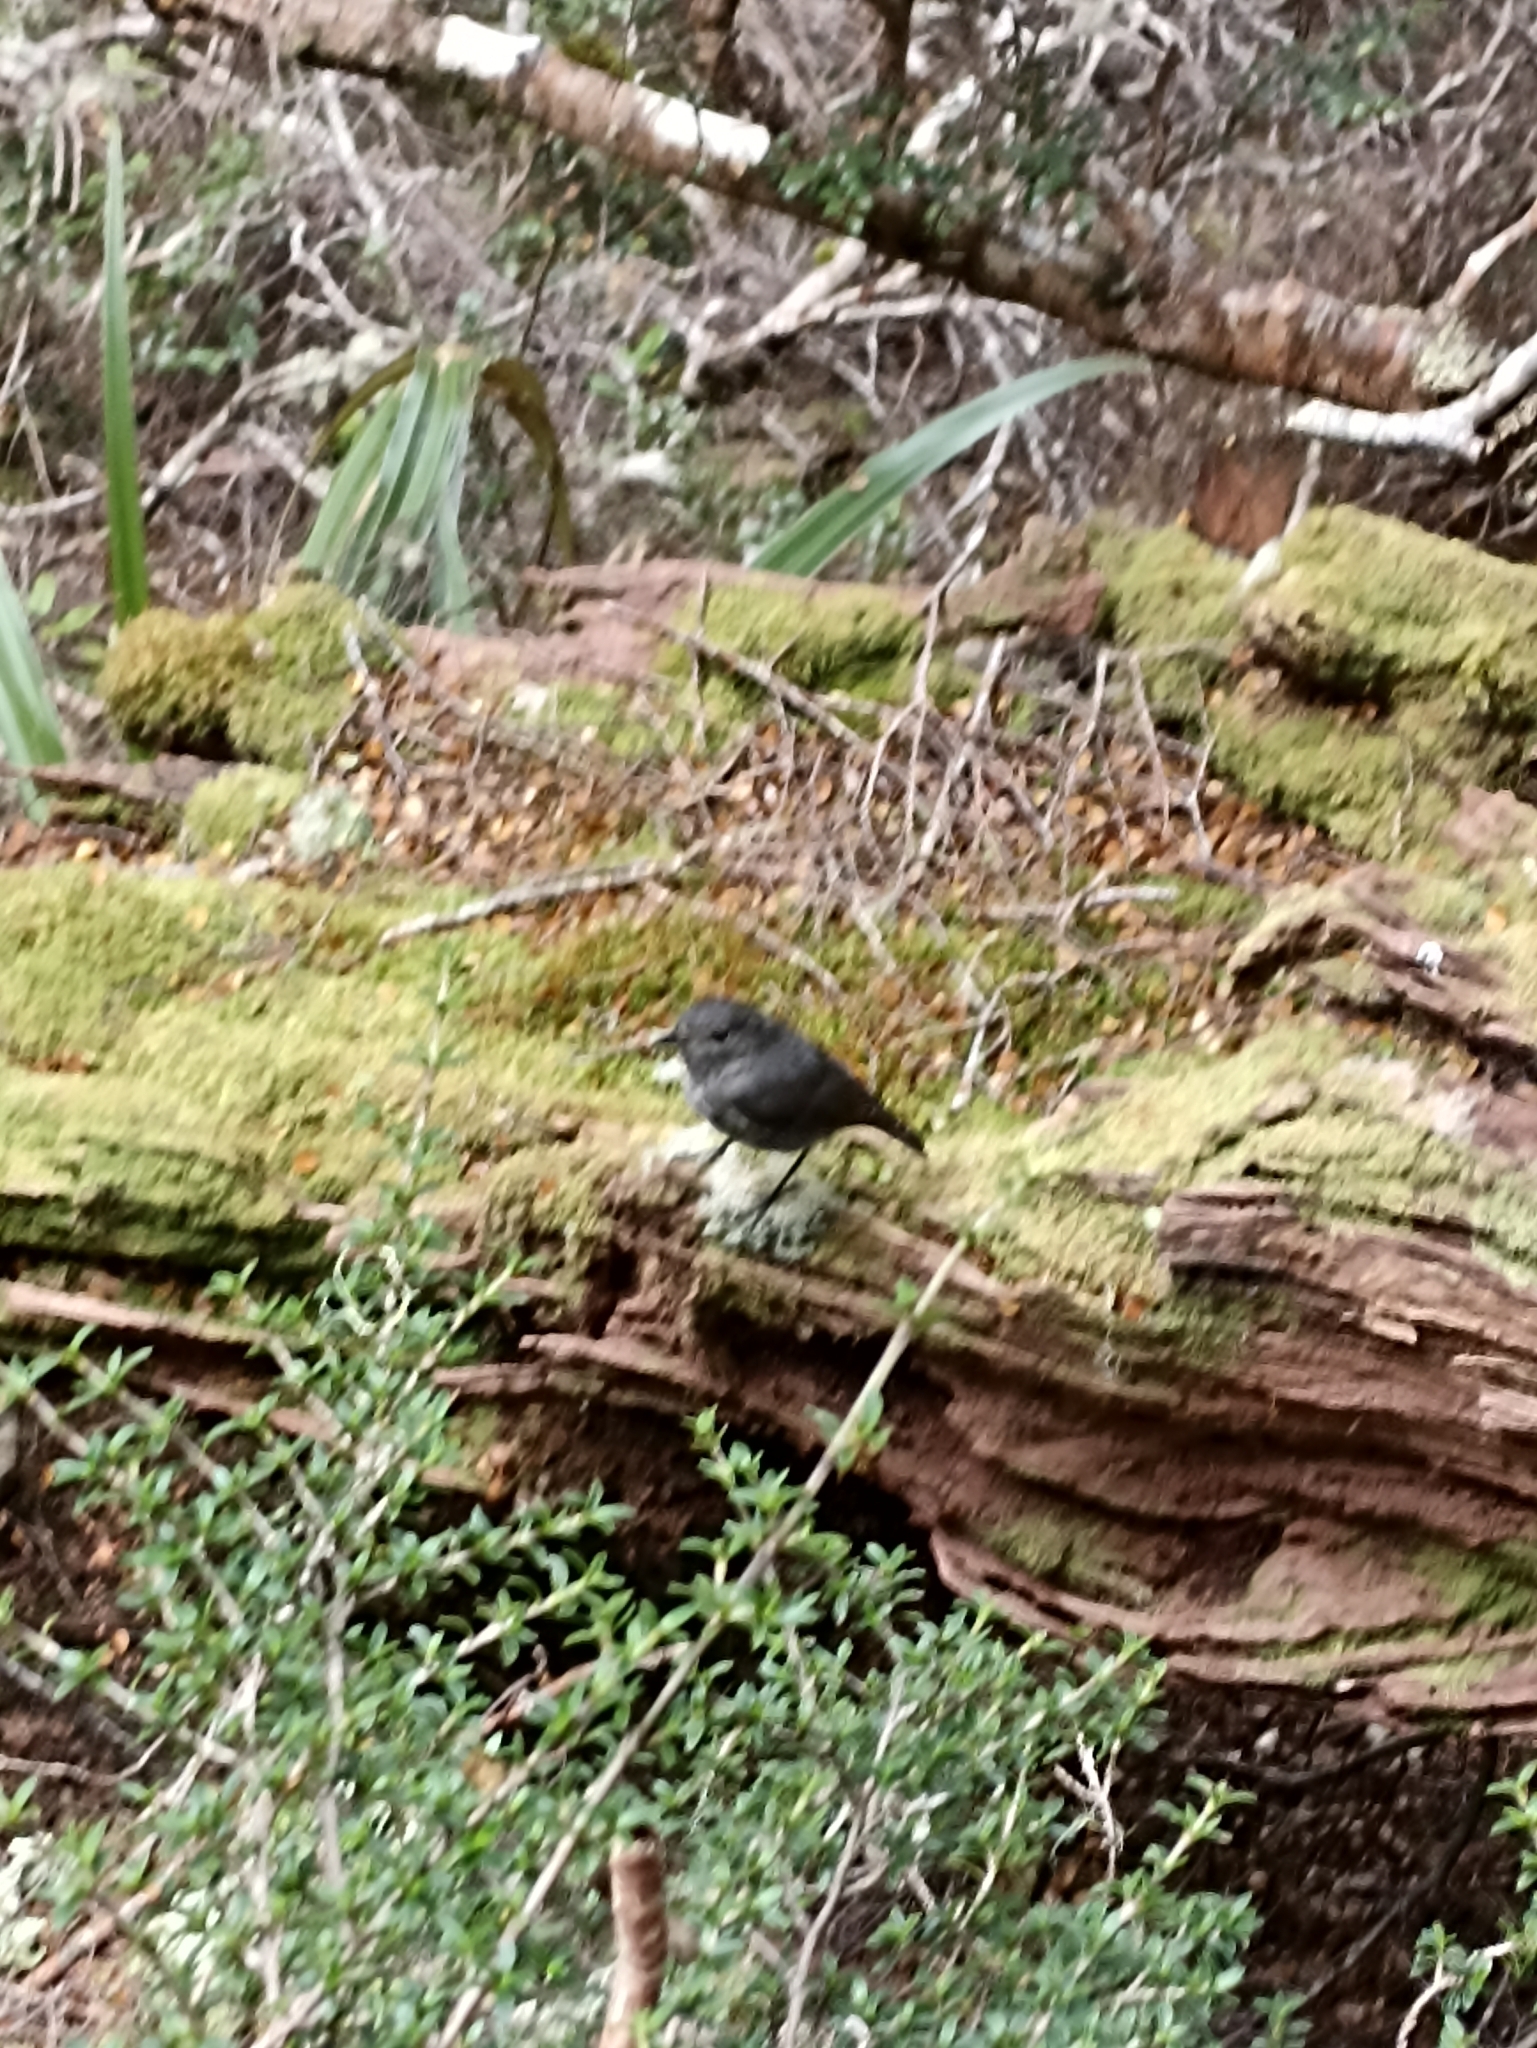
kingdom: Animalia
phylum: Chordata
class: Aves
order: Passeriformes
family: Petroicidae
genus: Petroica
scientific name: Petroica australis
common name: New zealand robin
